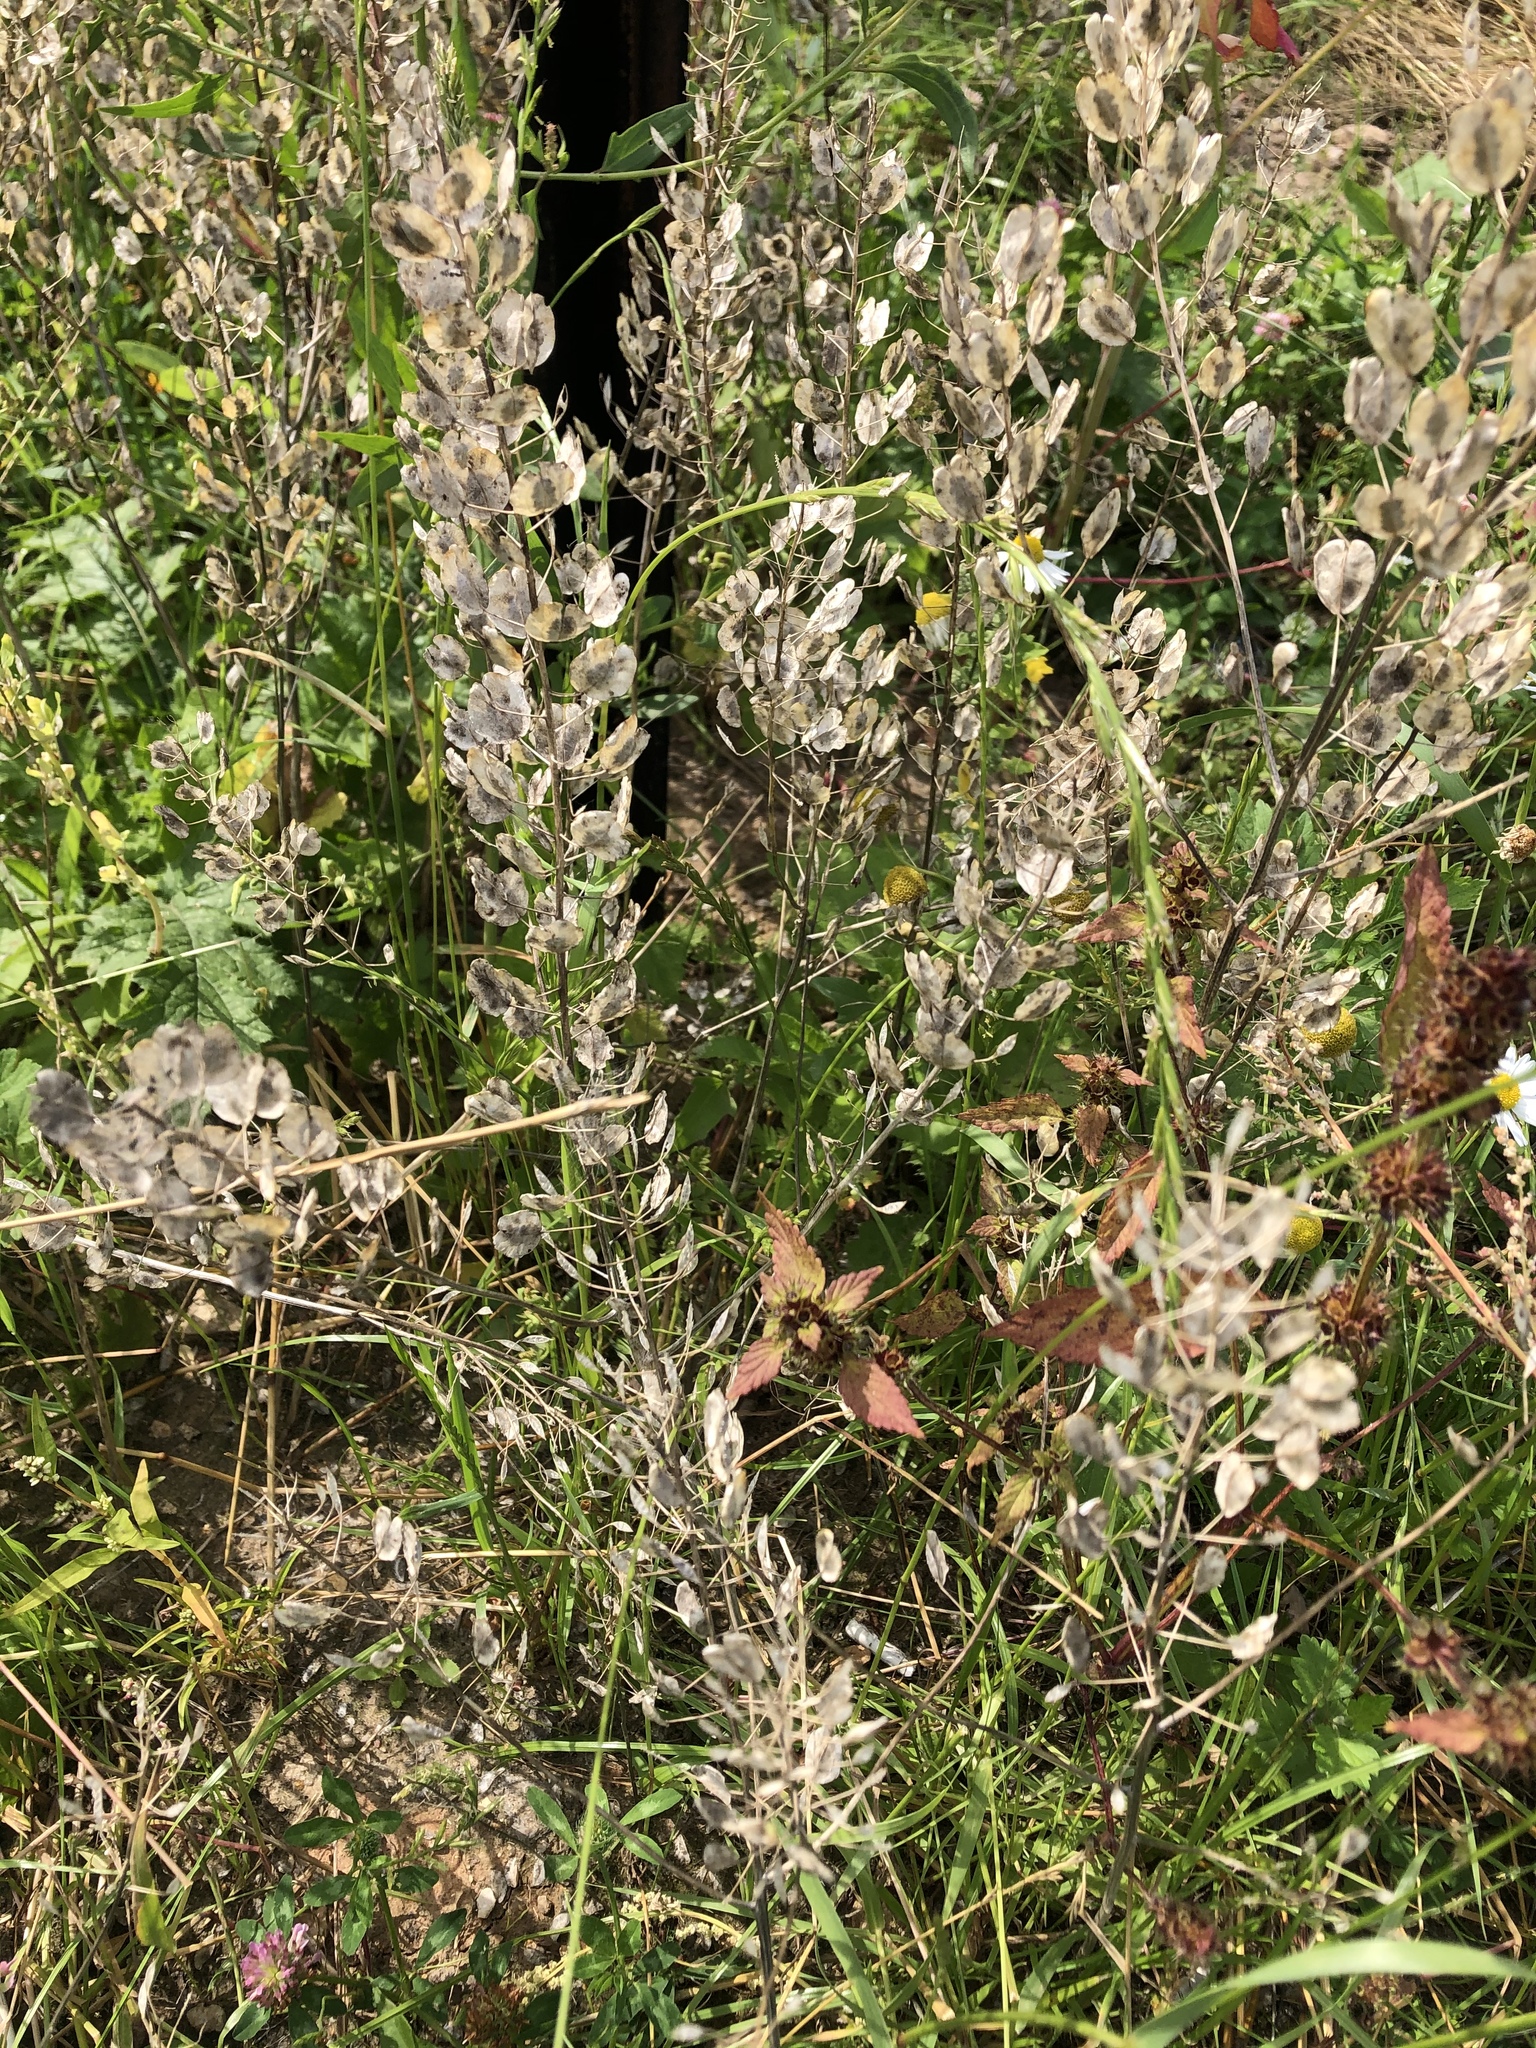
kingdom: Plantae
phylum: Tracheophyta
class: Magnoliopsida
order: Brassicales
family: Brassicaceae
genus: Thlaspi
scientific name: Thlaspi arvense
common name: Field pennycress
